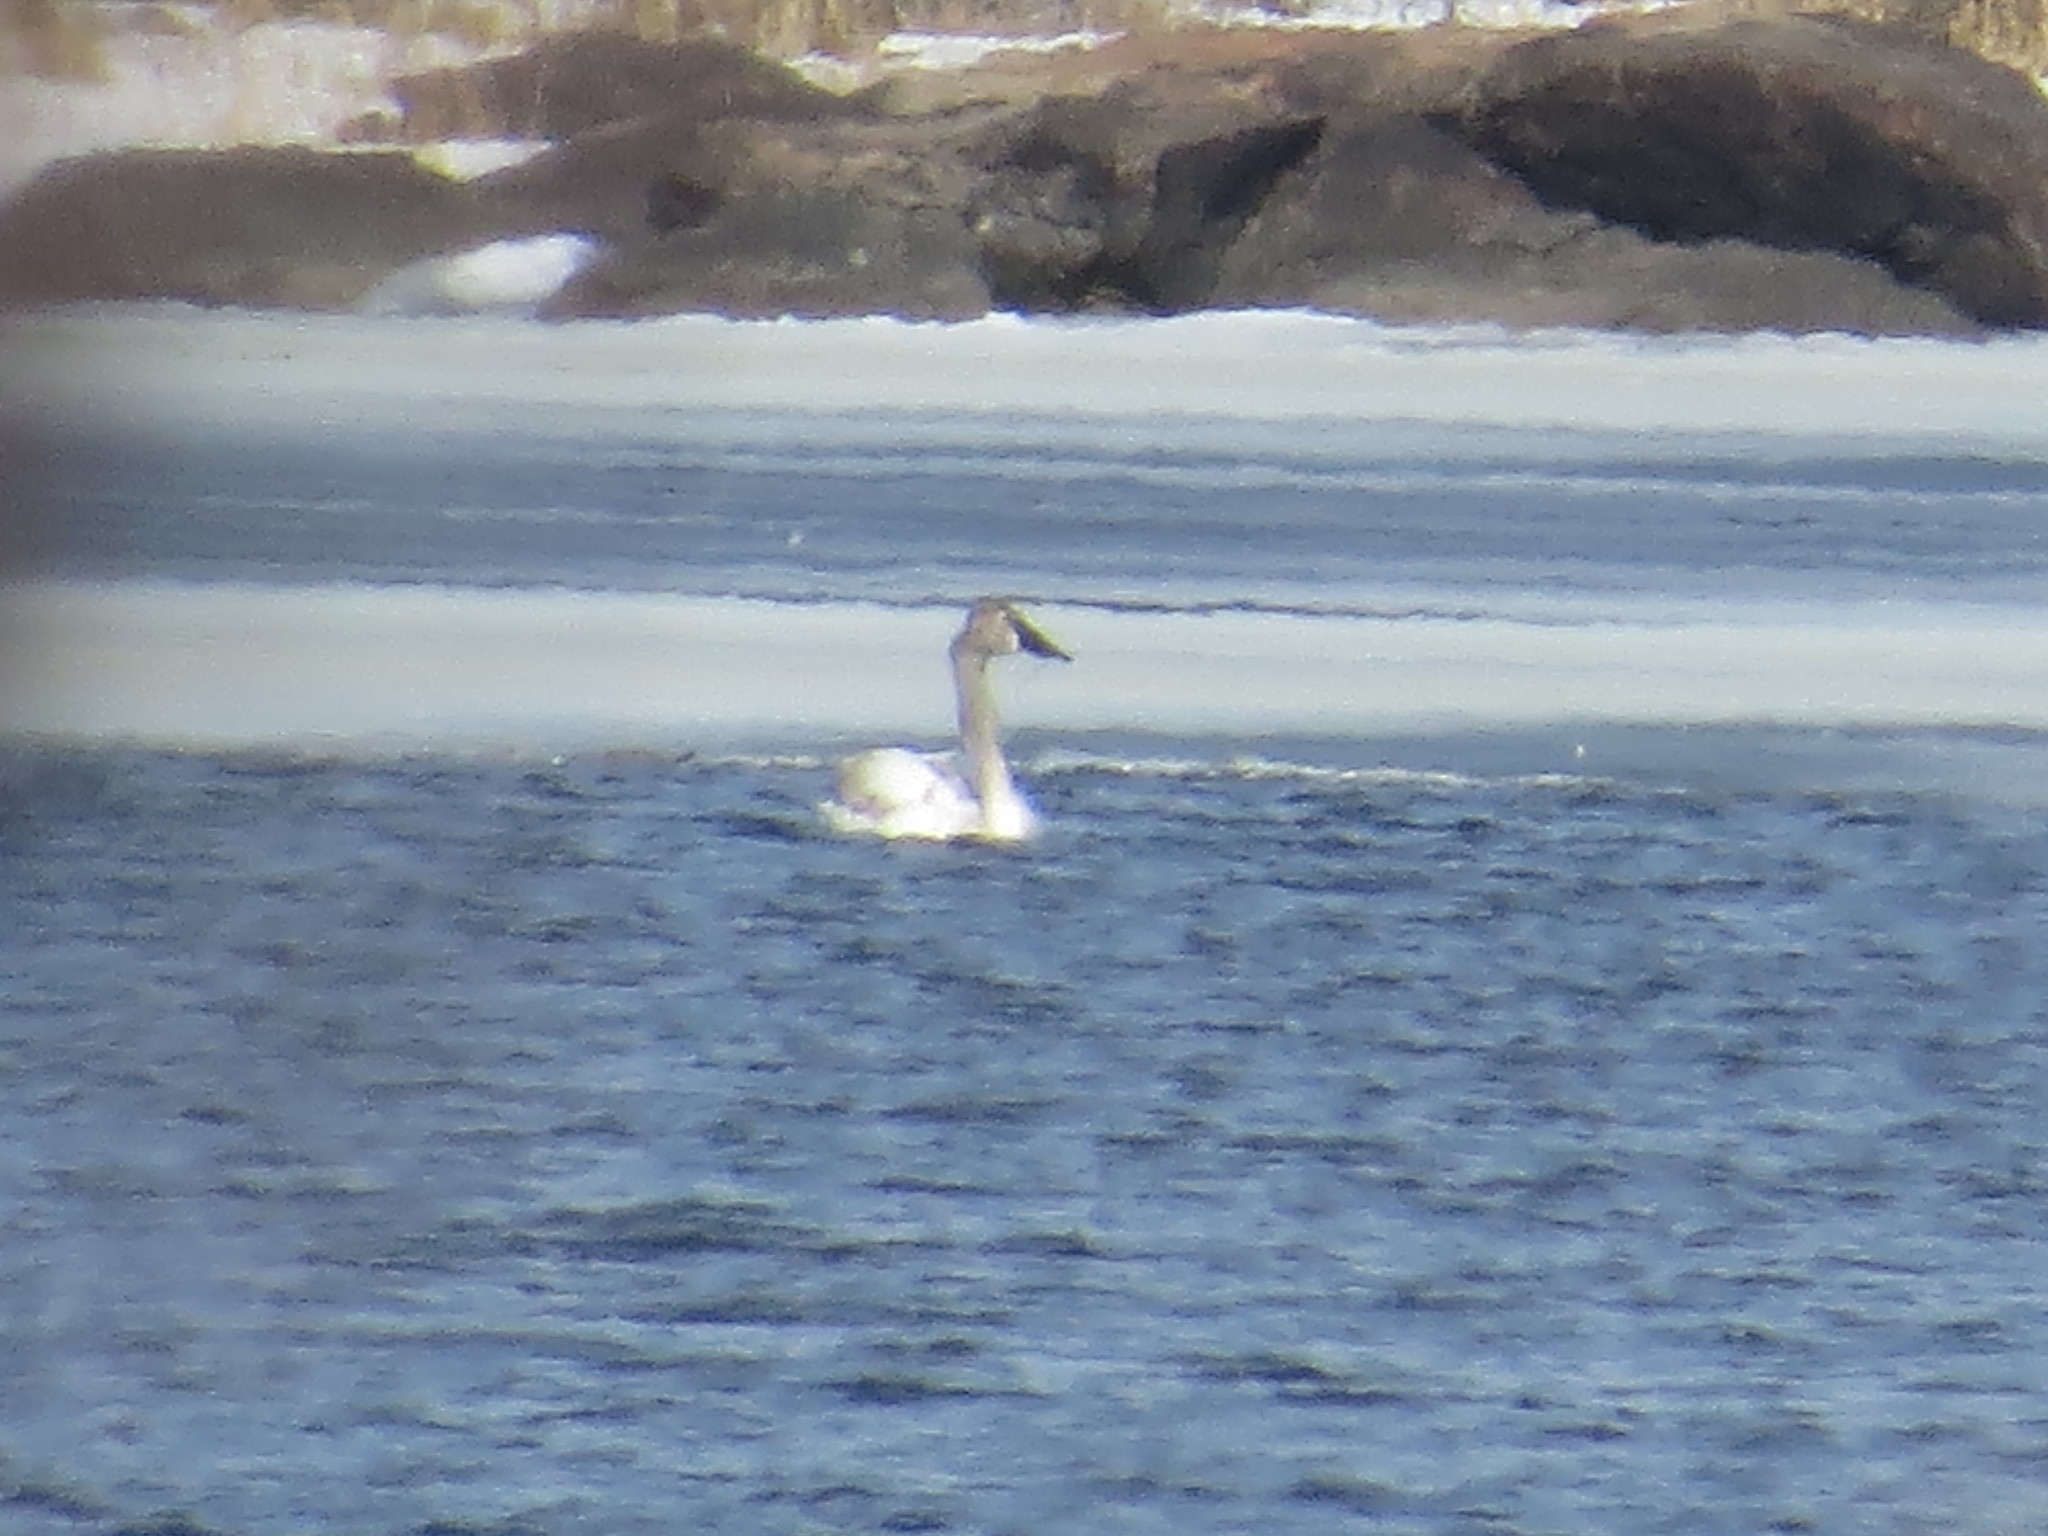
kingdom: Animalia
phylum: Chordata
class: Aves
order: Anseriformes
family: Anatidae
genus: Cygnus
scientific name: Cygnus buccinator
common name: Trumpeter swan
